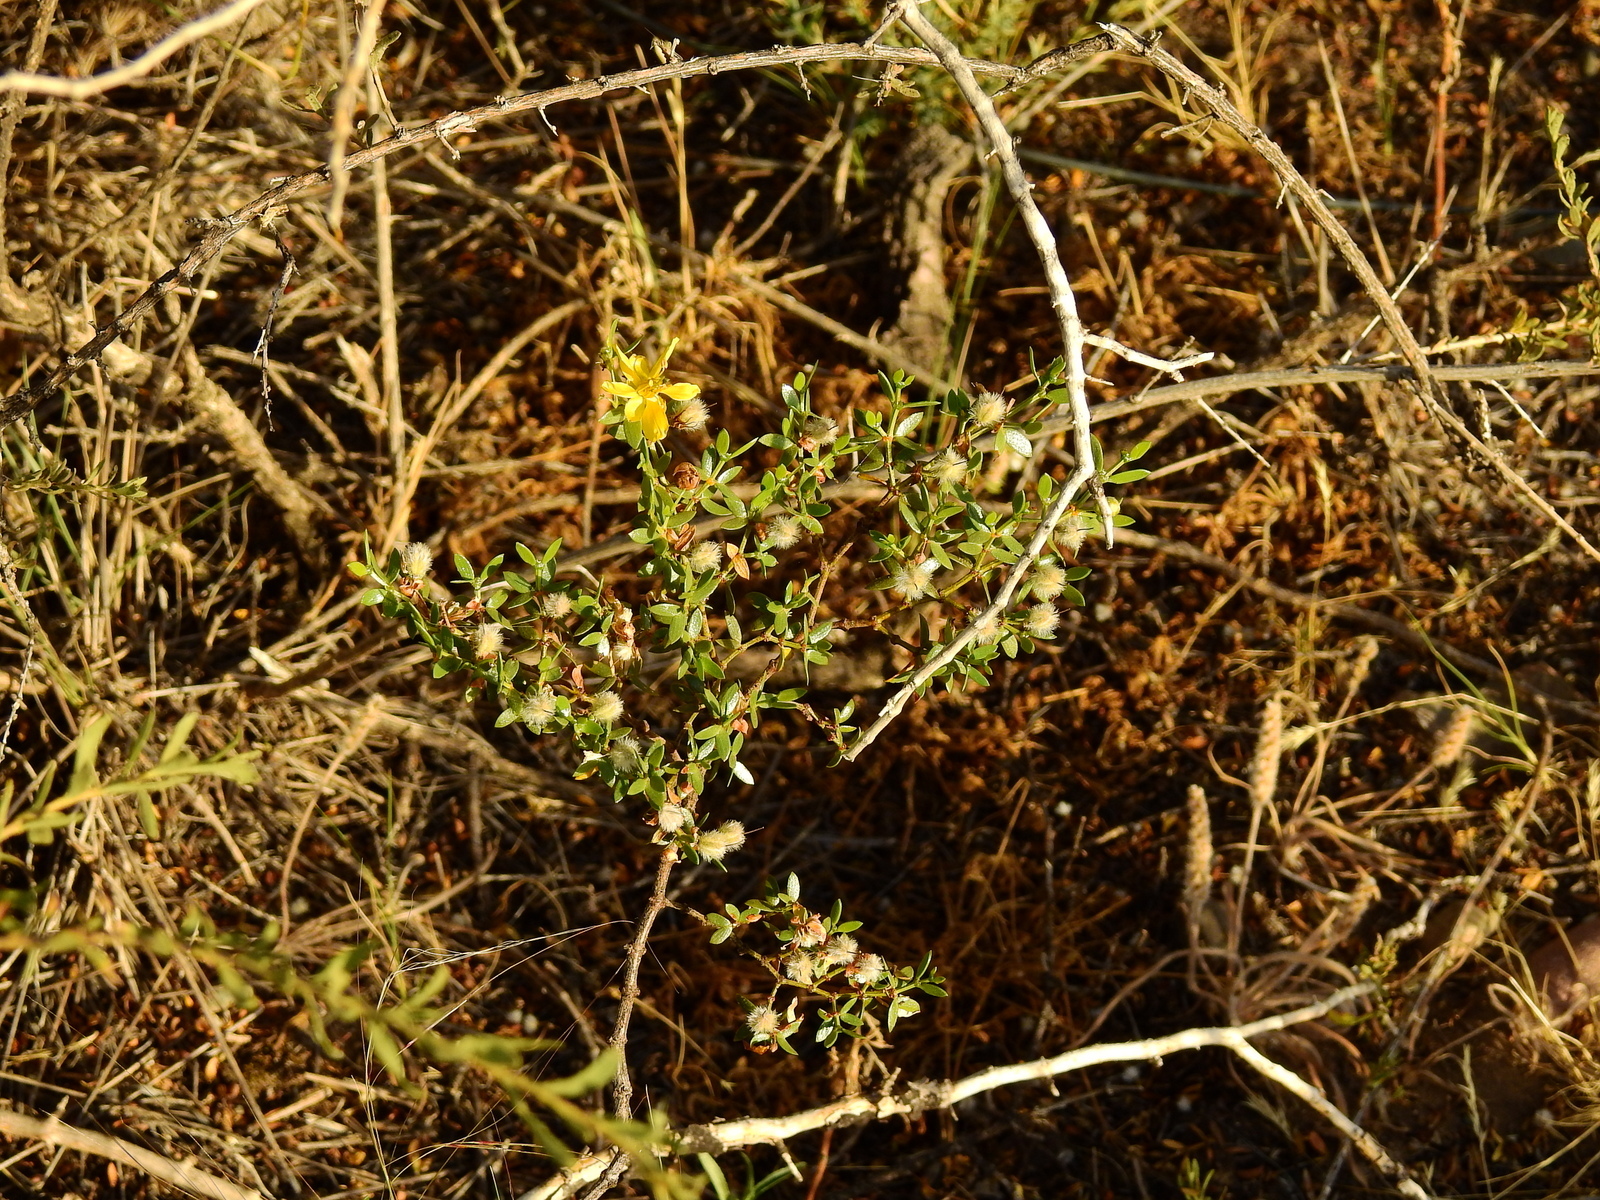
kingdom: Plantae
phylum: Tracheophyta
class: Magnoliopsida
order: Zygophyllales
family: Zygophyllaceae
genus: Larrea
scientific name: Larrea divaricata
